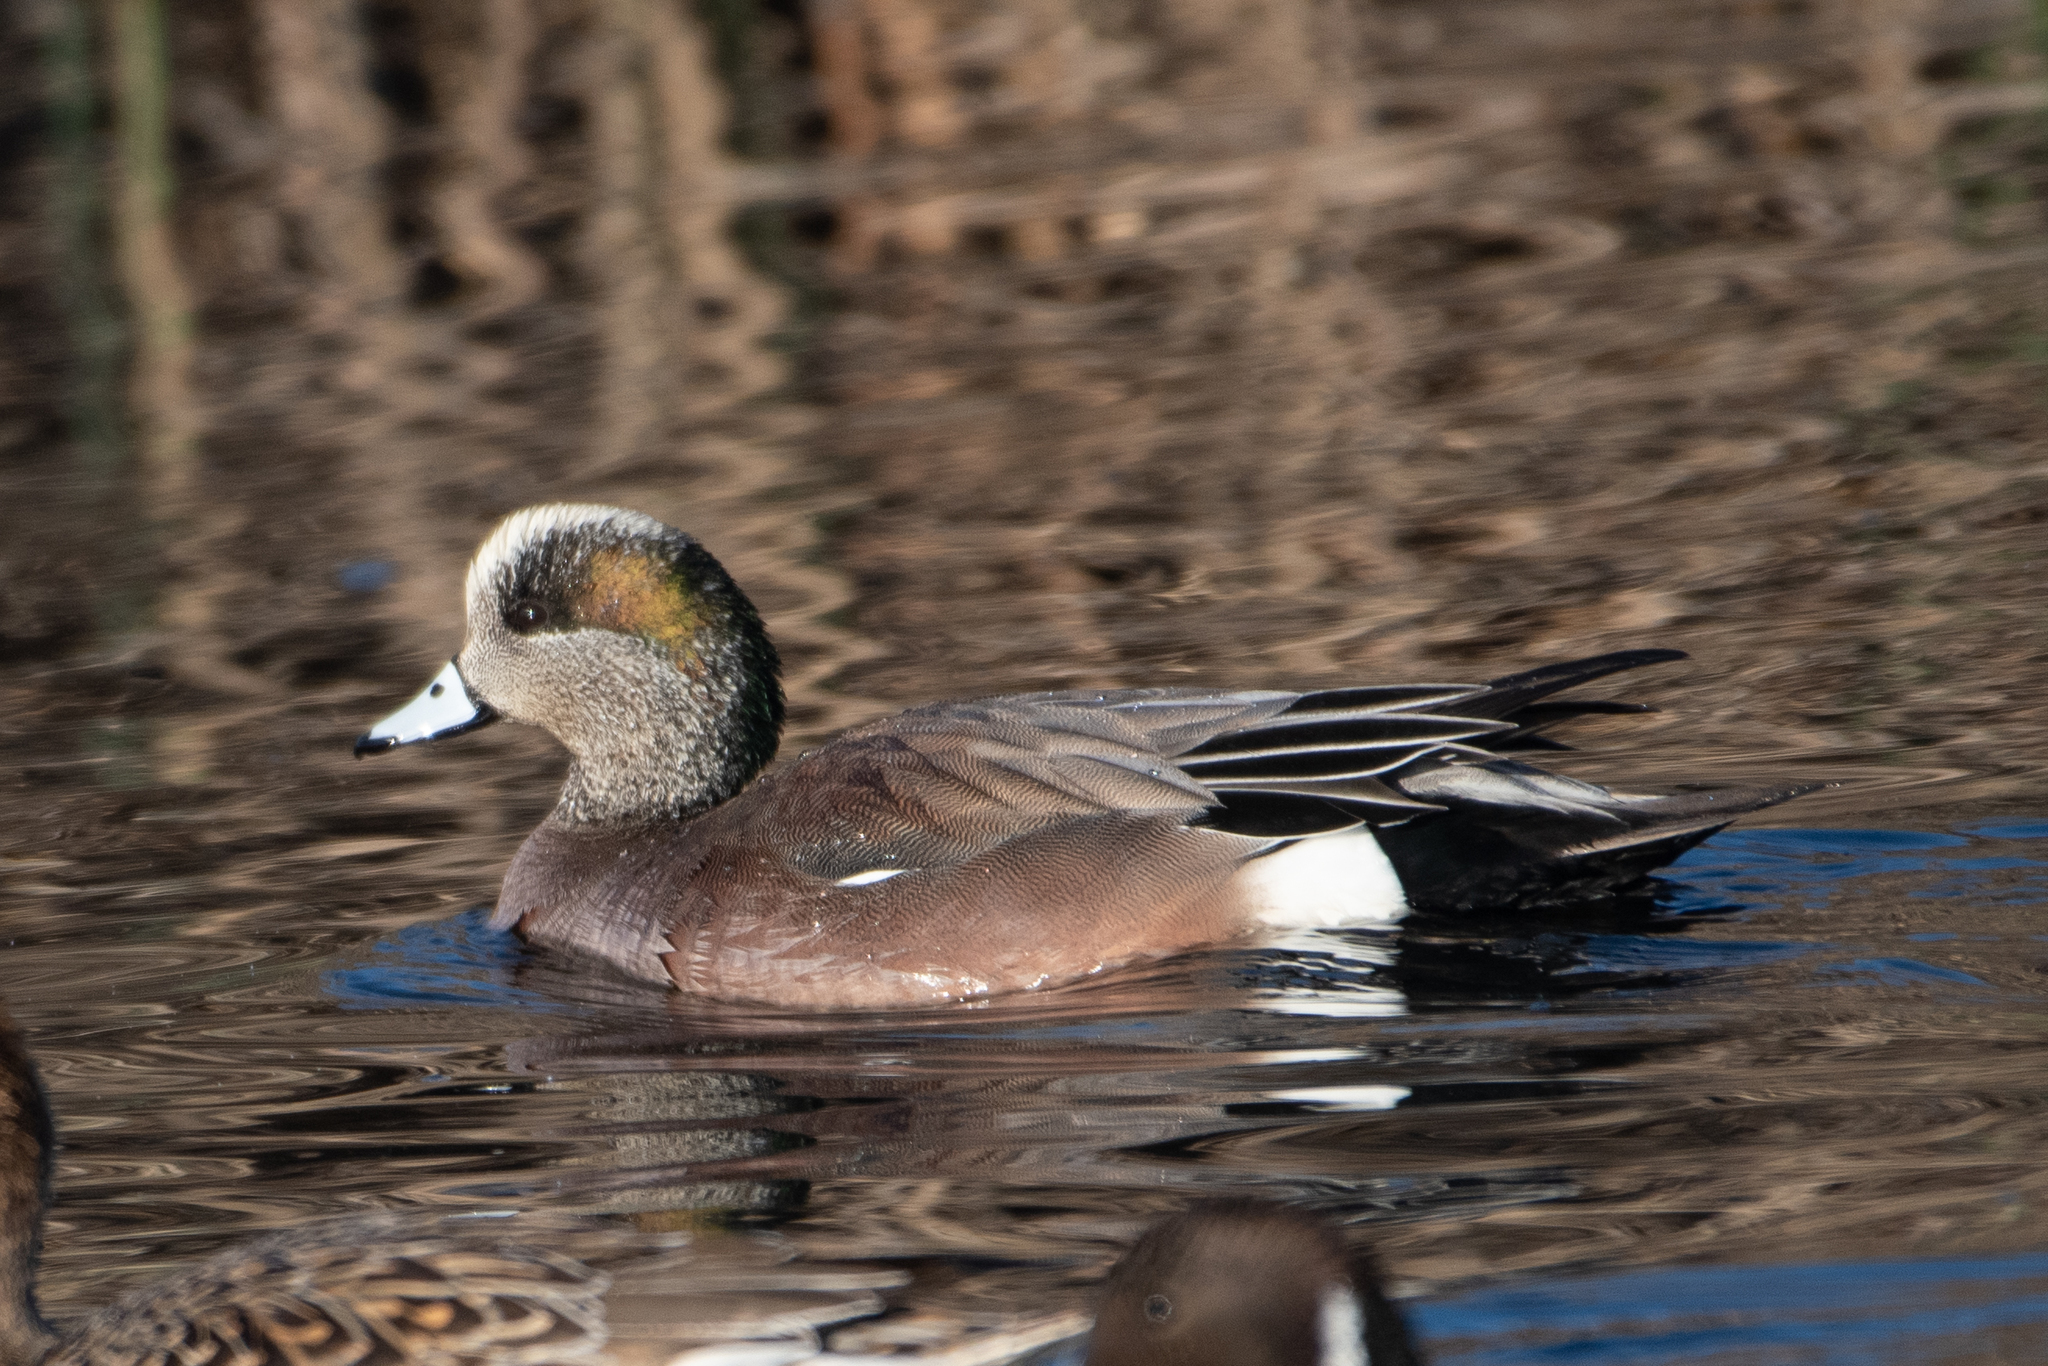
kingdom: Animalia
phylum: Chordata
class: Aves
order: Anseriformes
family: Anatidae
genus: Mareca
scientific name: Mareca americana
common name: American wigeon
